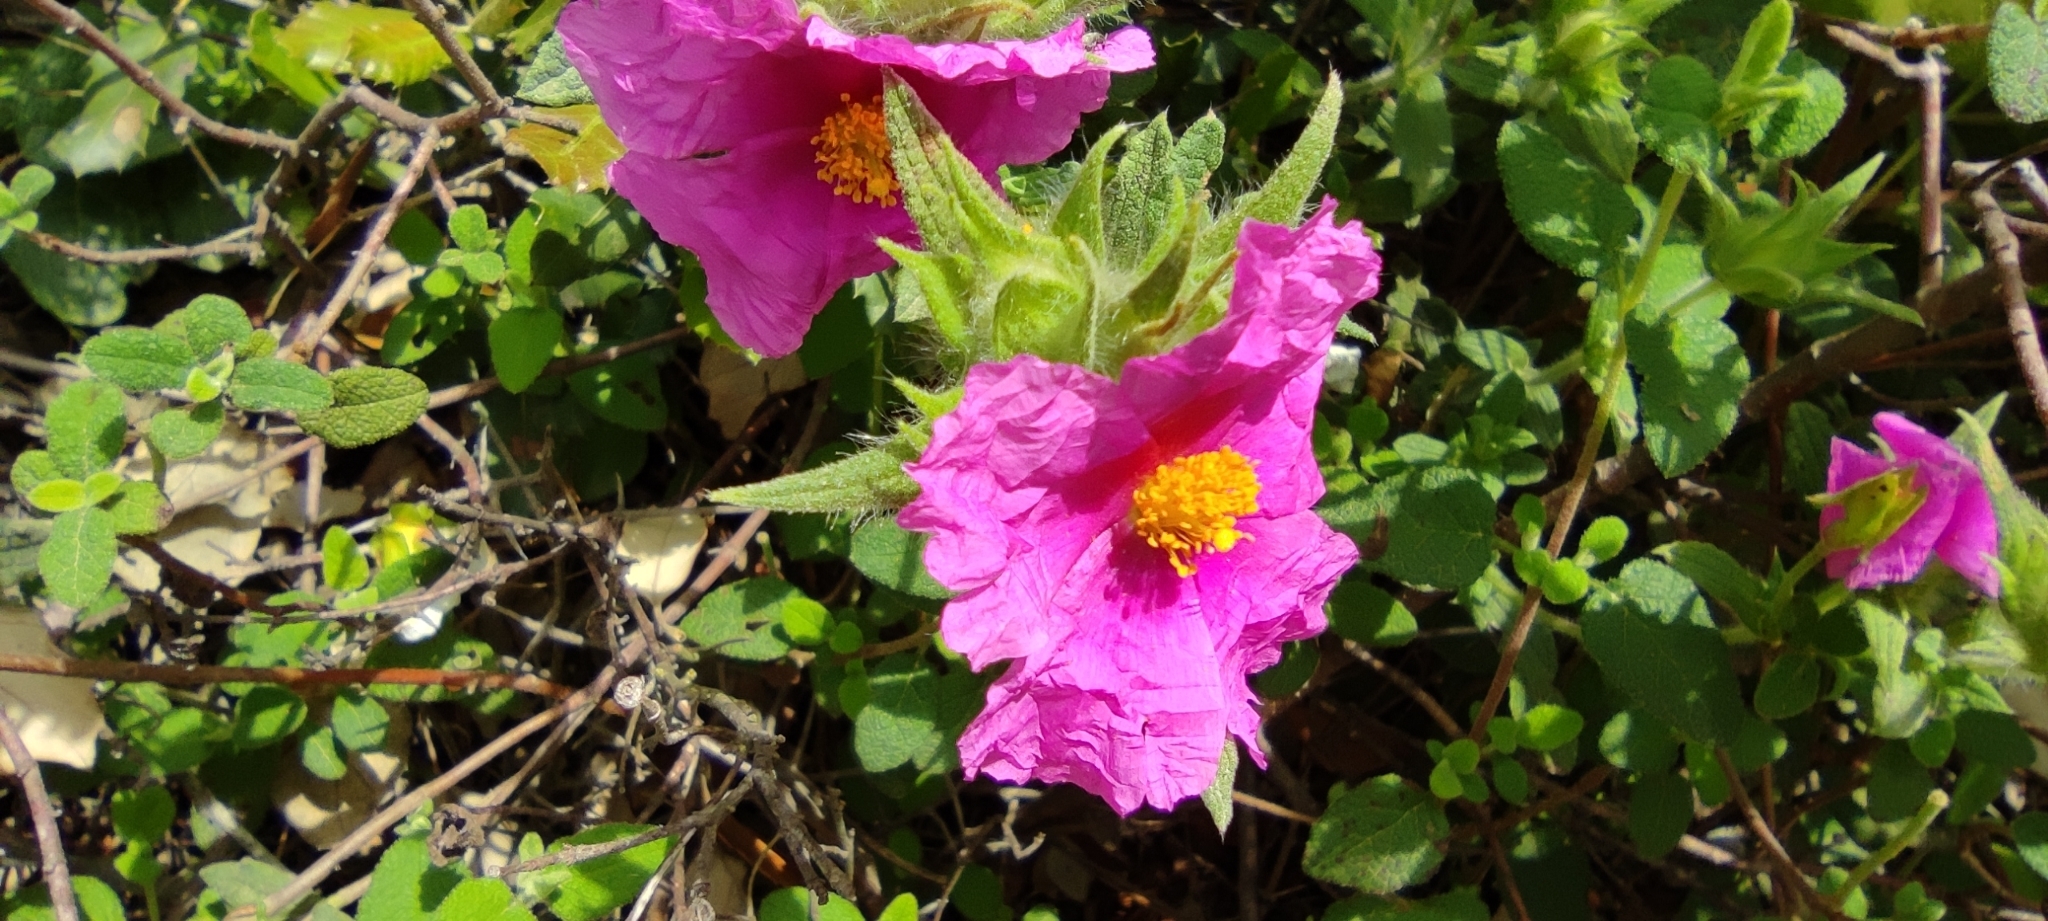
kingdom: Plantae
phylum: Tracheophyta
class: Magnoliopsida
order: Malvales
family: Cistaceae
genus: Cistus
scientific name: Cistus crispus
